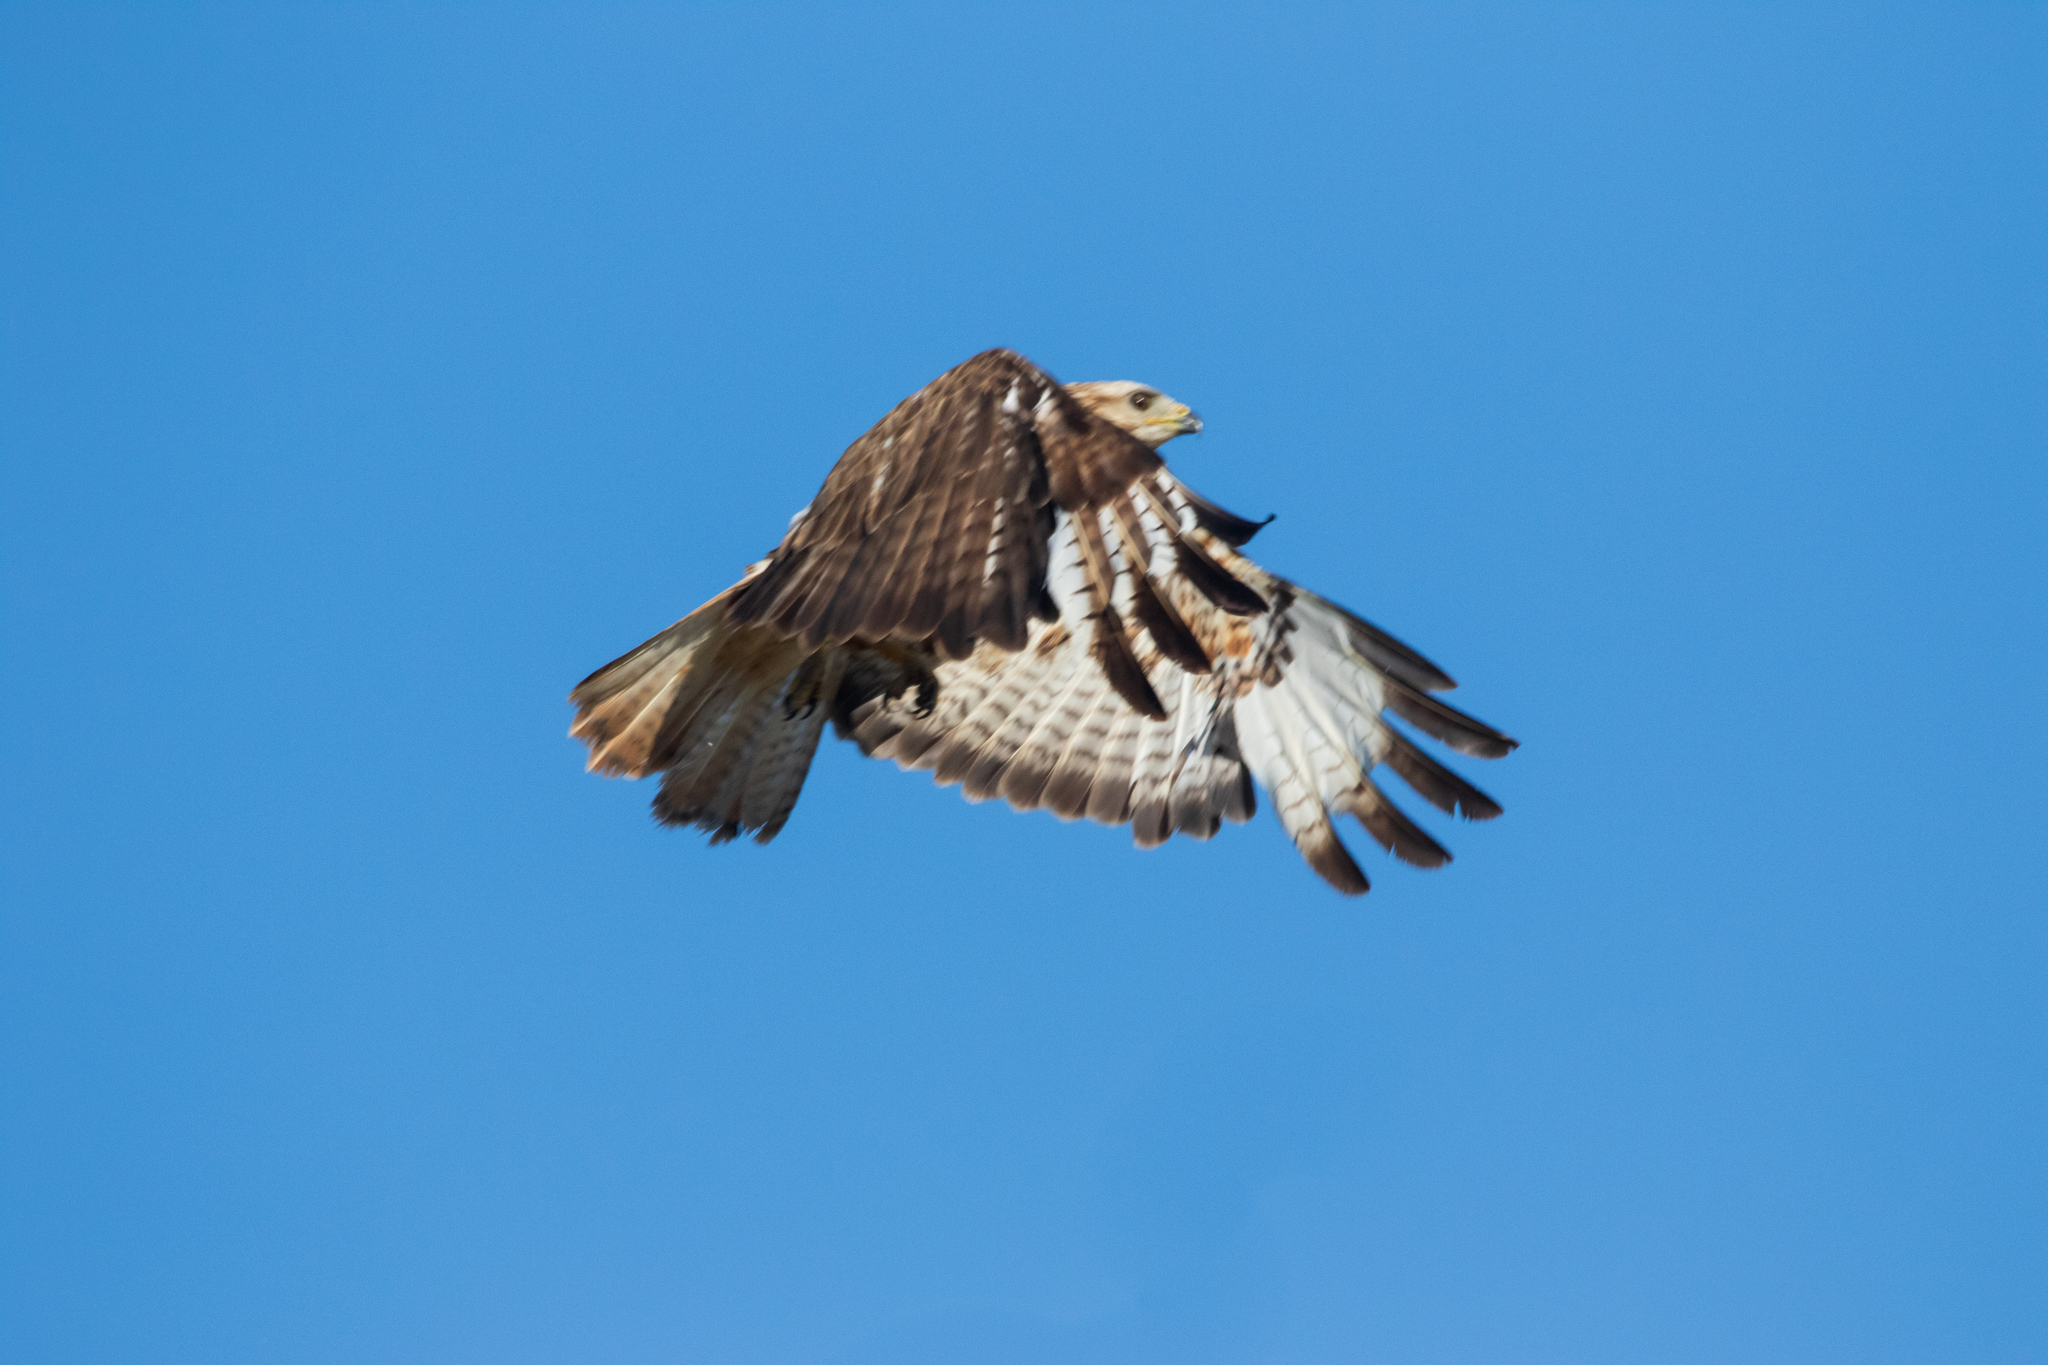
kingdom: Animalia
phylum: Chordata
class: Aves
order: Accipitriformes
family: Accipitridae
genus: Buteo
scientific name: Buteo buteo
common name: Common buzzard
